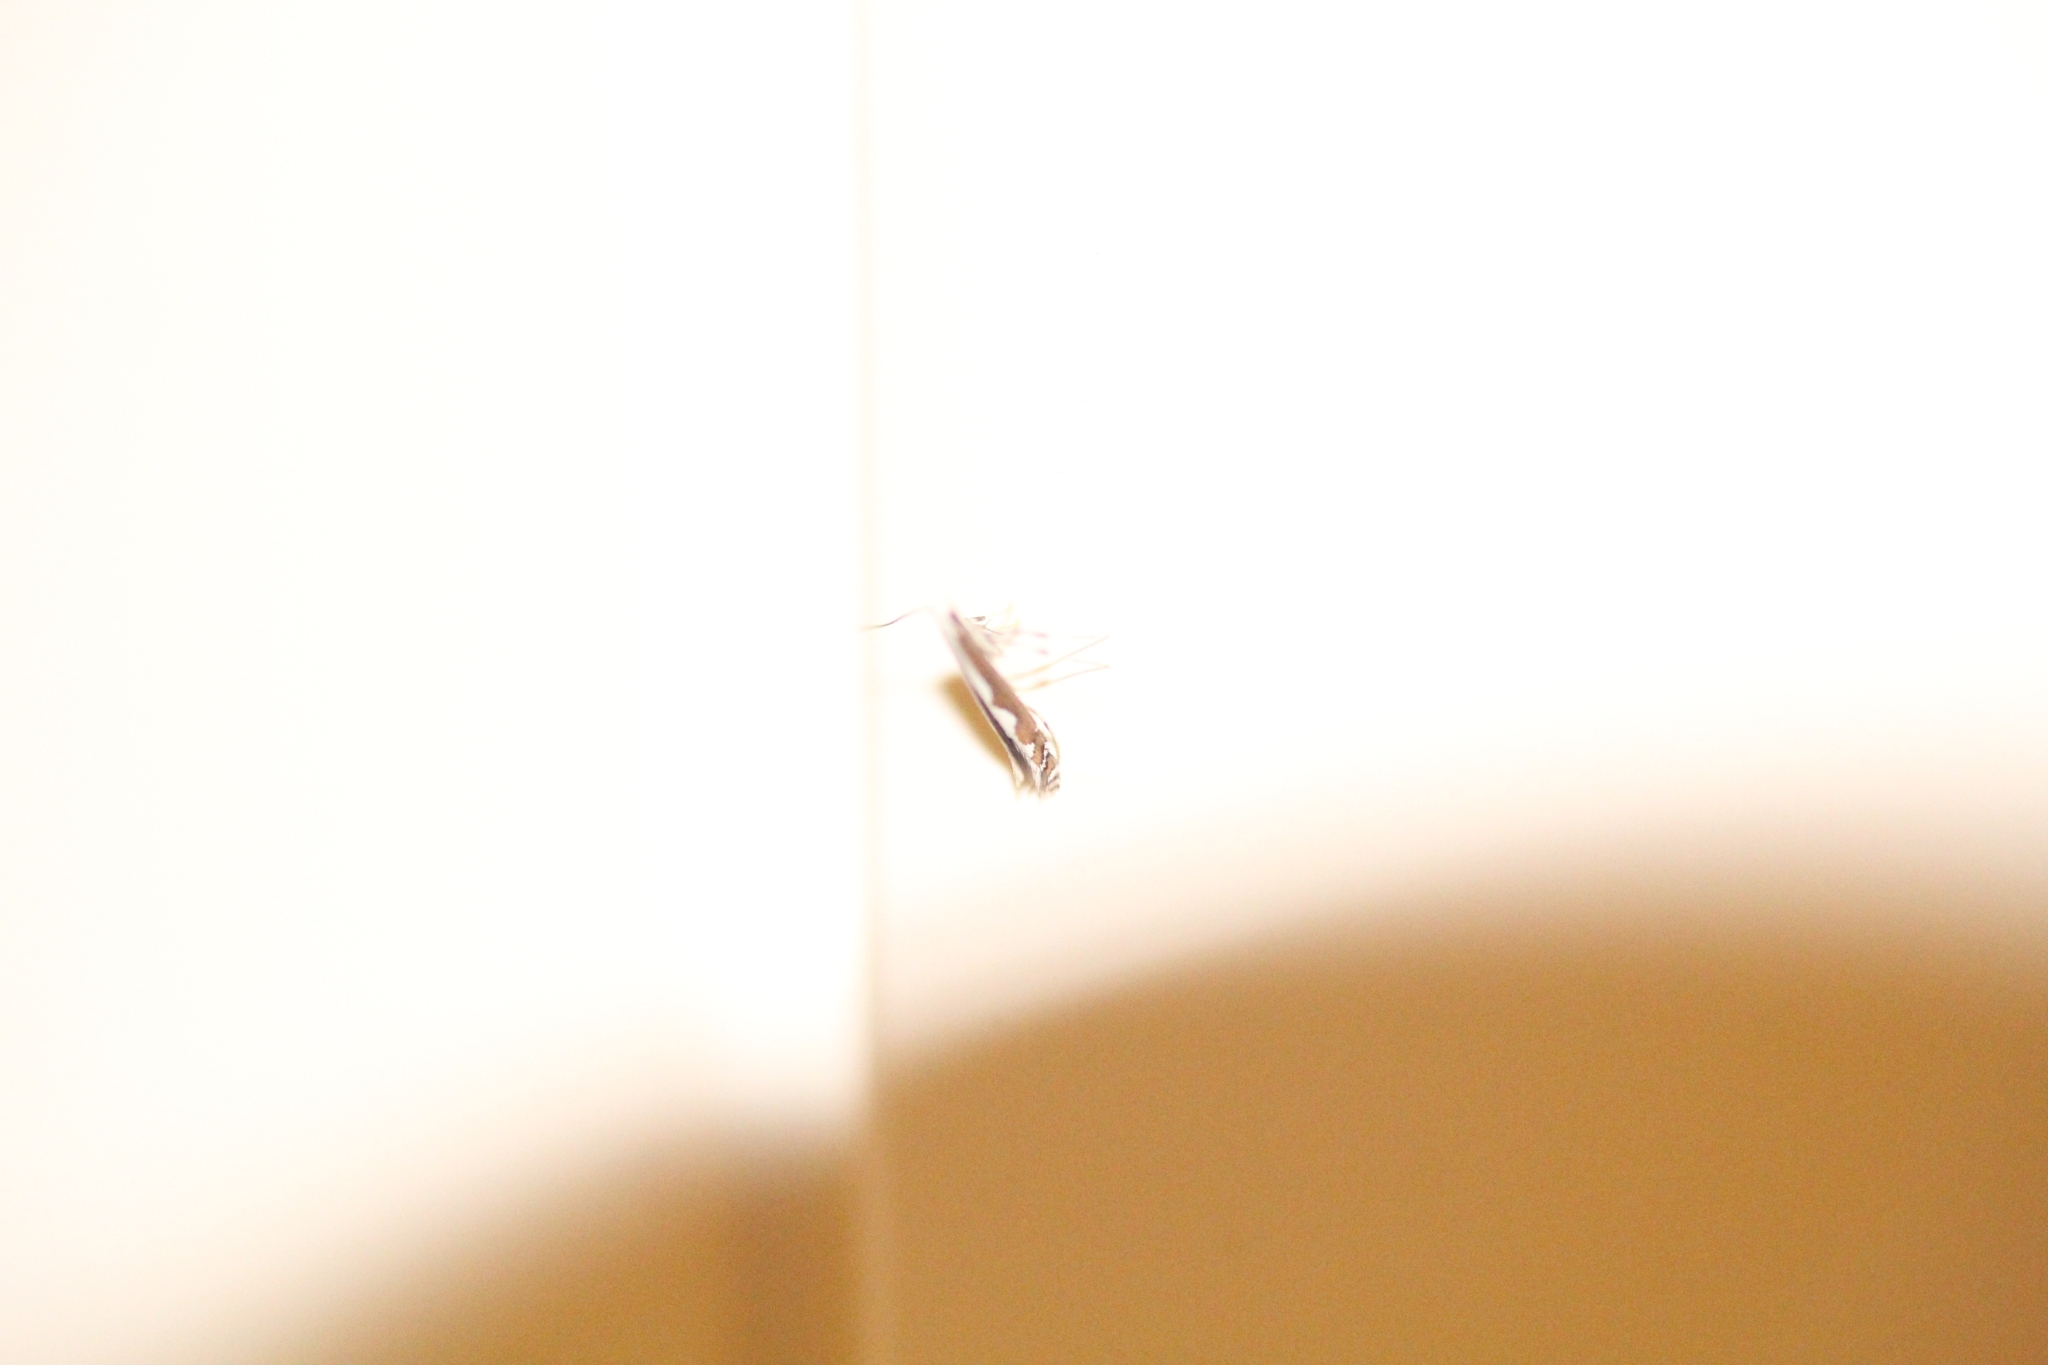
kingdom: Animalia
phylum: Arthropoda
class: Insecta
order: Lepidoptera
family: Gracillariidae
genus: Dialectica
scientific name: Dialectica scalariella
